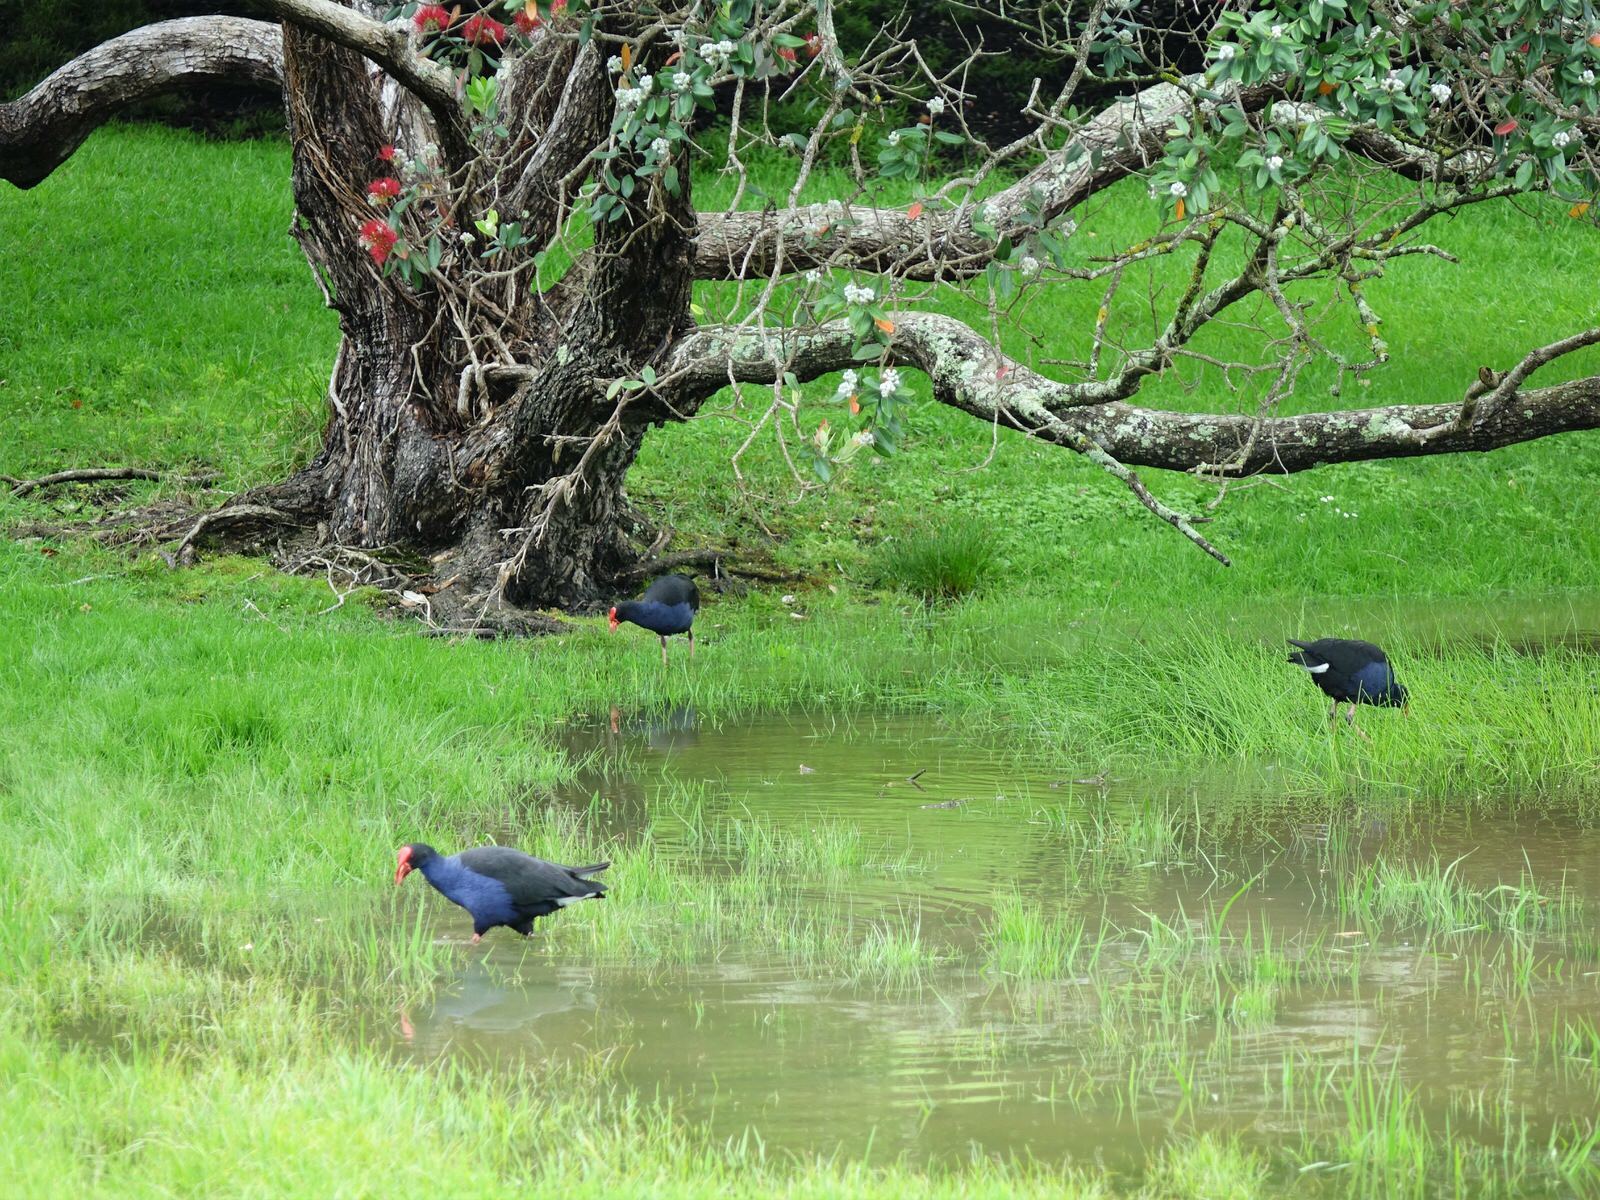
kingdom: Animalia
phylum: Chordata
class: Aves
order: Gruiformes
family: Rallidae
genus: Porphyrio
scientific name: Porphyrio melanotus
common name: Australasian swamphen
